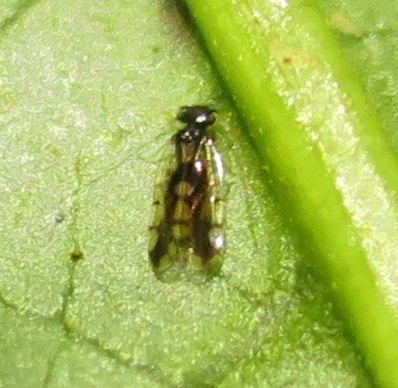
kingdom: Animalia
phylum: Arthropoda
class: Insecta
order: Psocodea
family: Ectopsocidae
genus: Ectopsocus
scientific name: Ectopsocus gracilis
